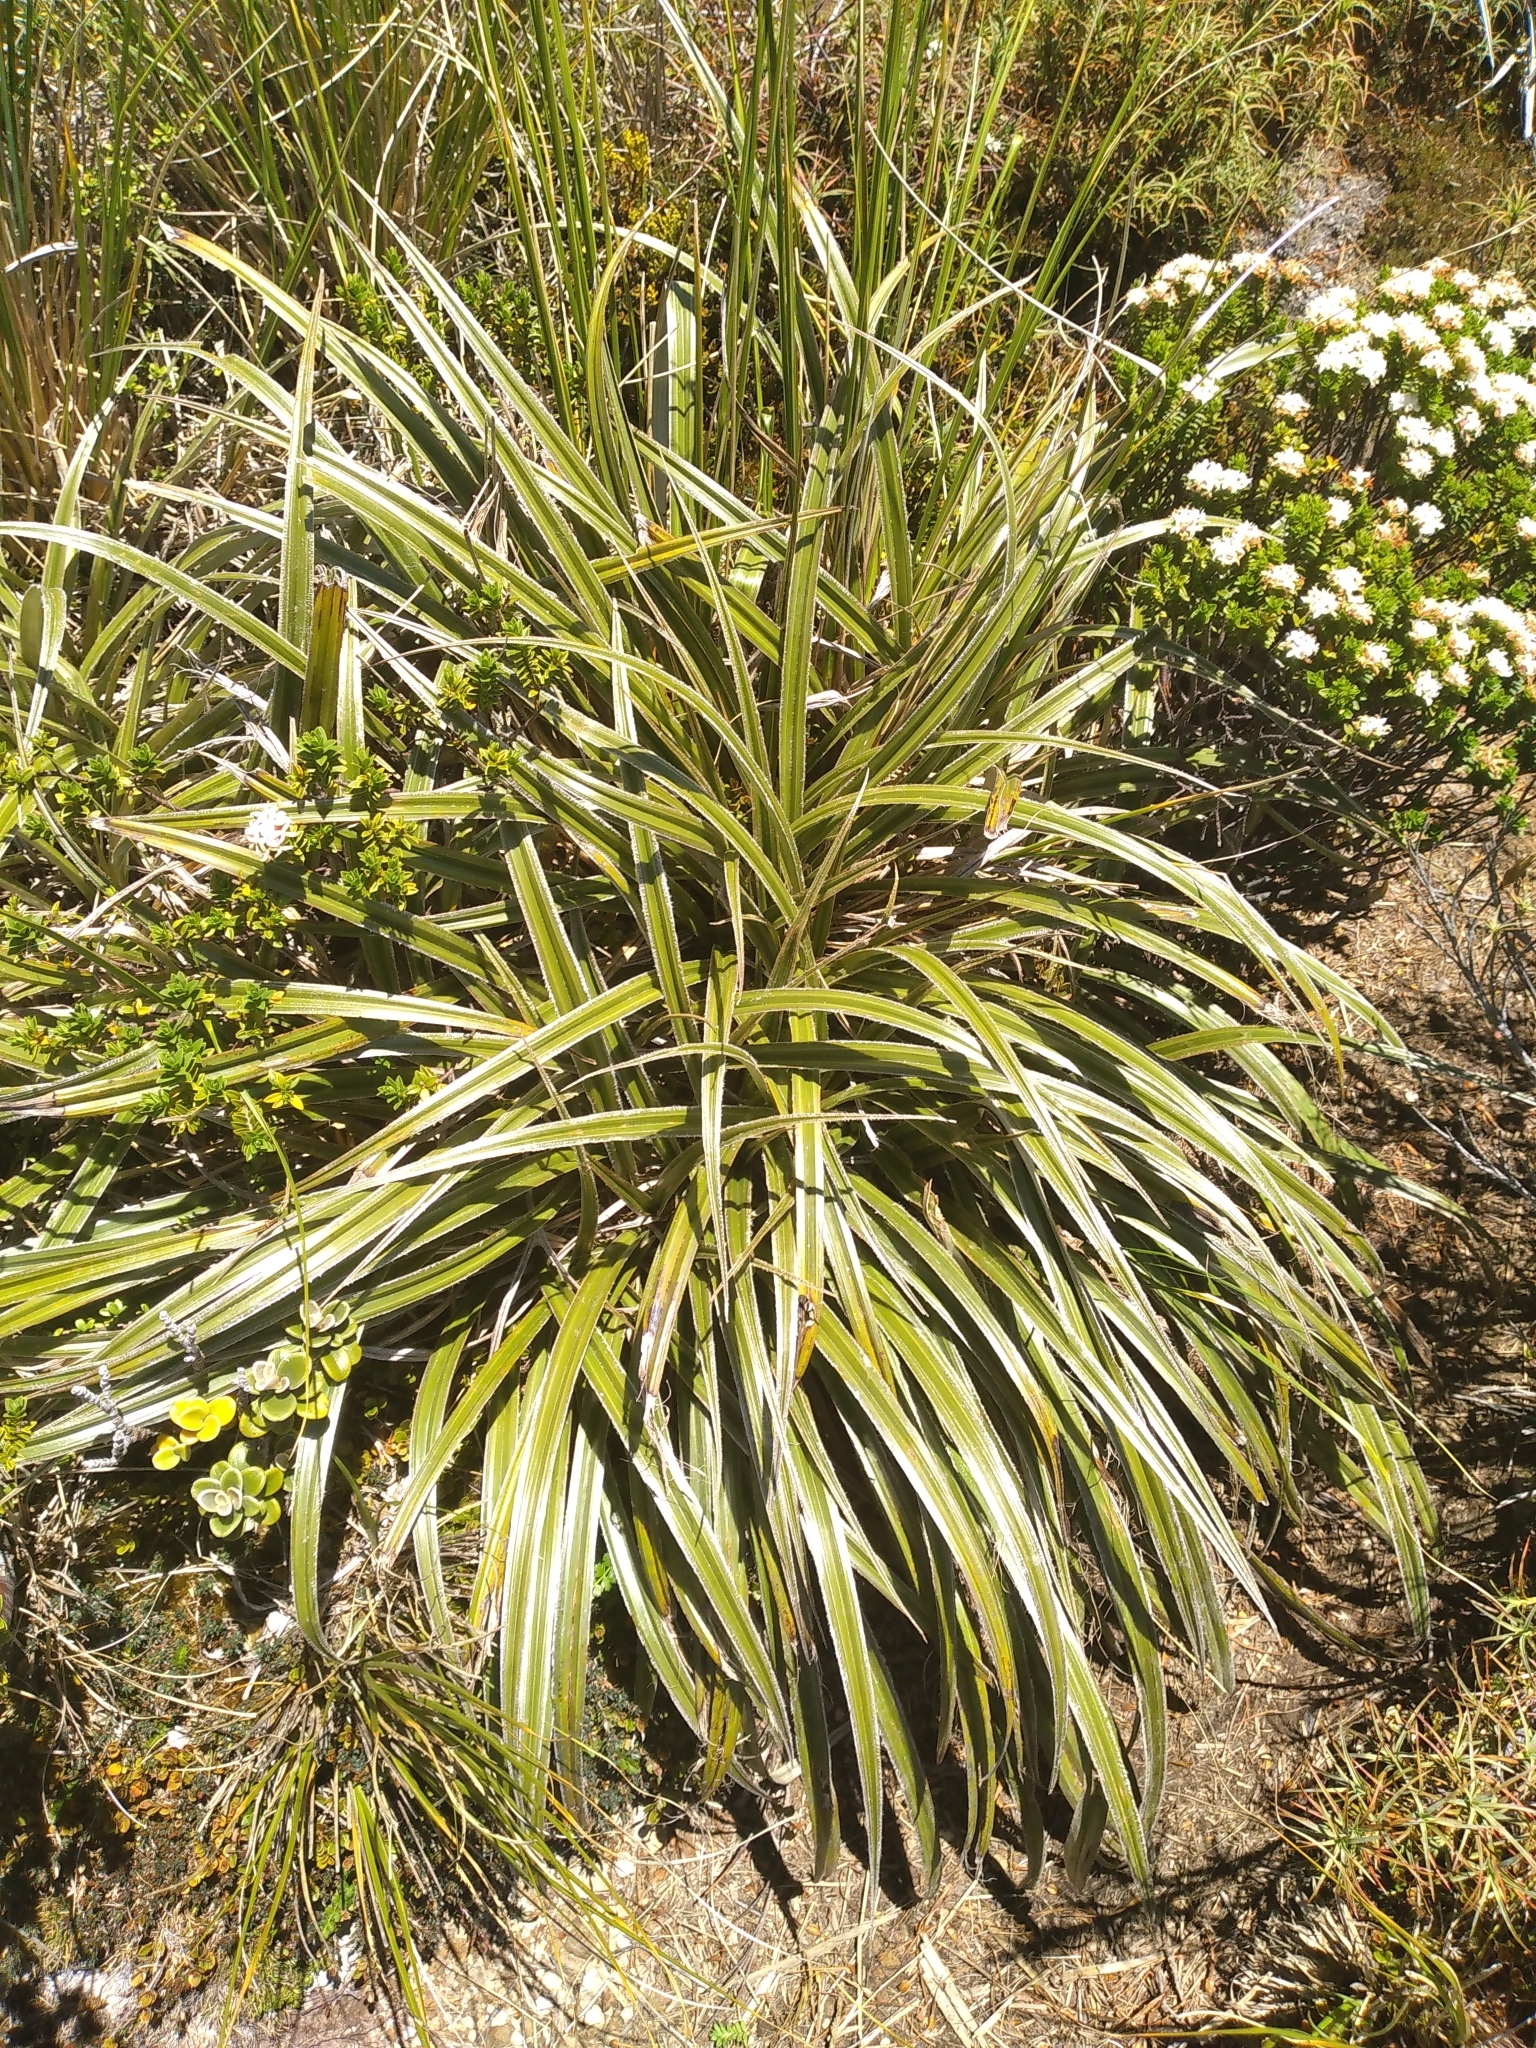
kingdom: Plantae
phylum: Tracheophyta
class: Liliopsida
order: Asparagales
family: Asteliaceae
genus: Astelia
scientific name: Astelia nervosa
